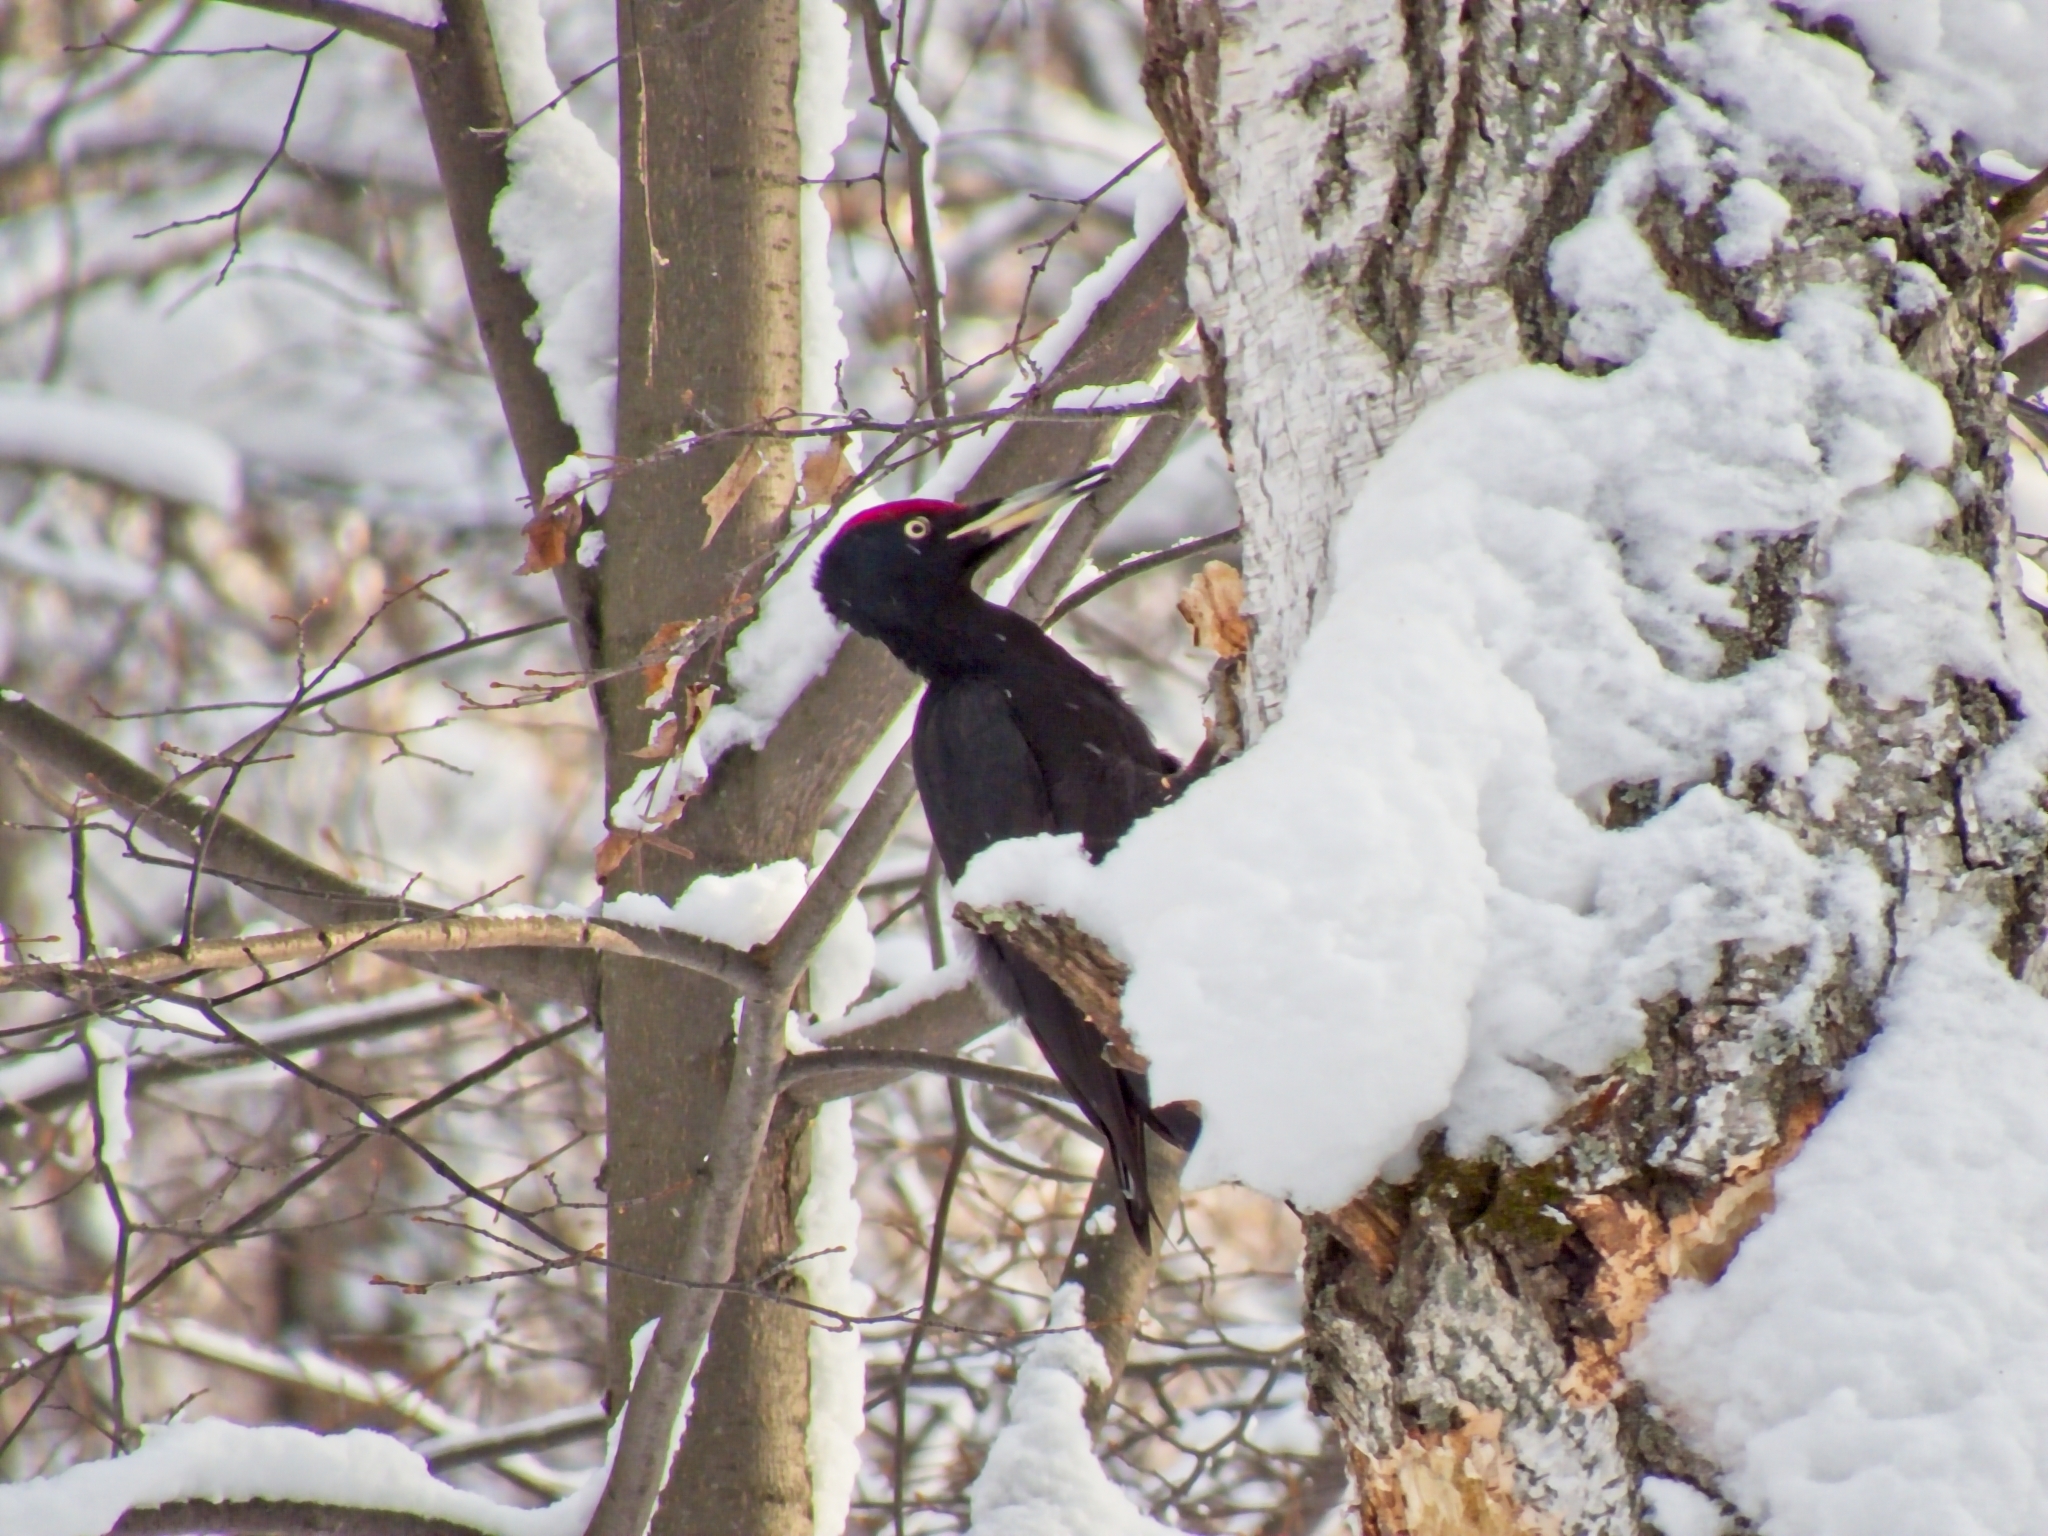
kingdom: Animalia
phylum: Chordata
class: Aves
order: Piciformes
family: Picidae
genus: Dryocopus
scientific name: Dryocopus martius
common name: Black woodpecker
